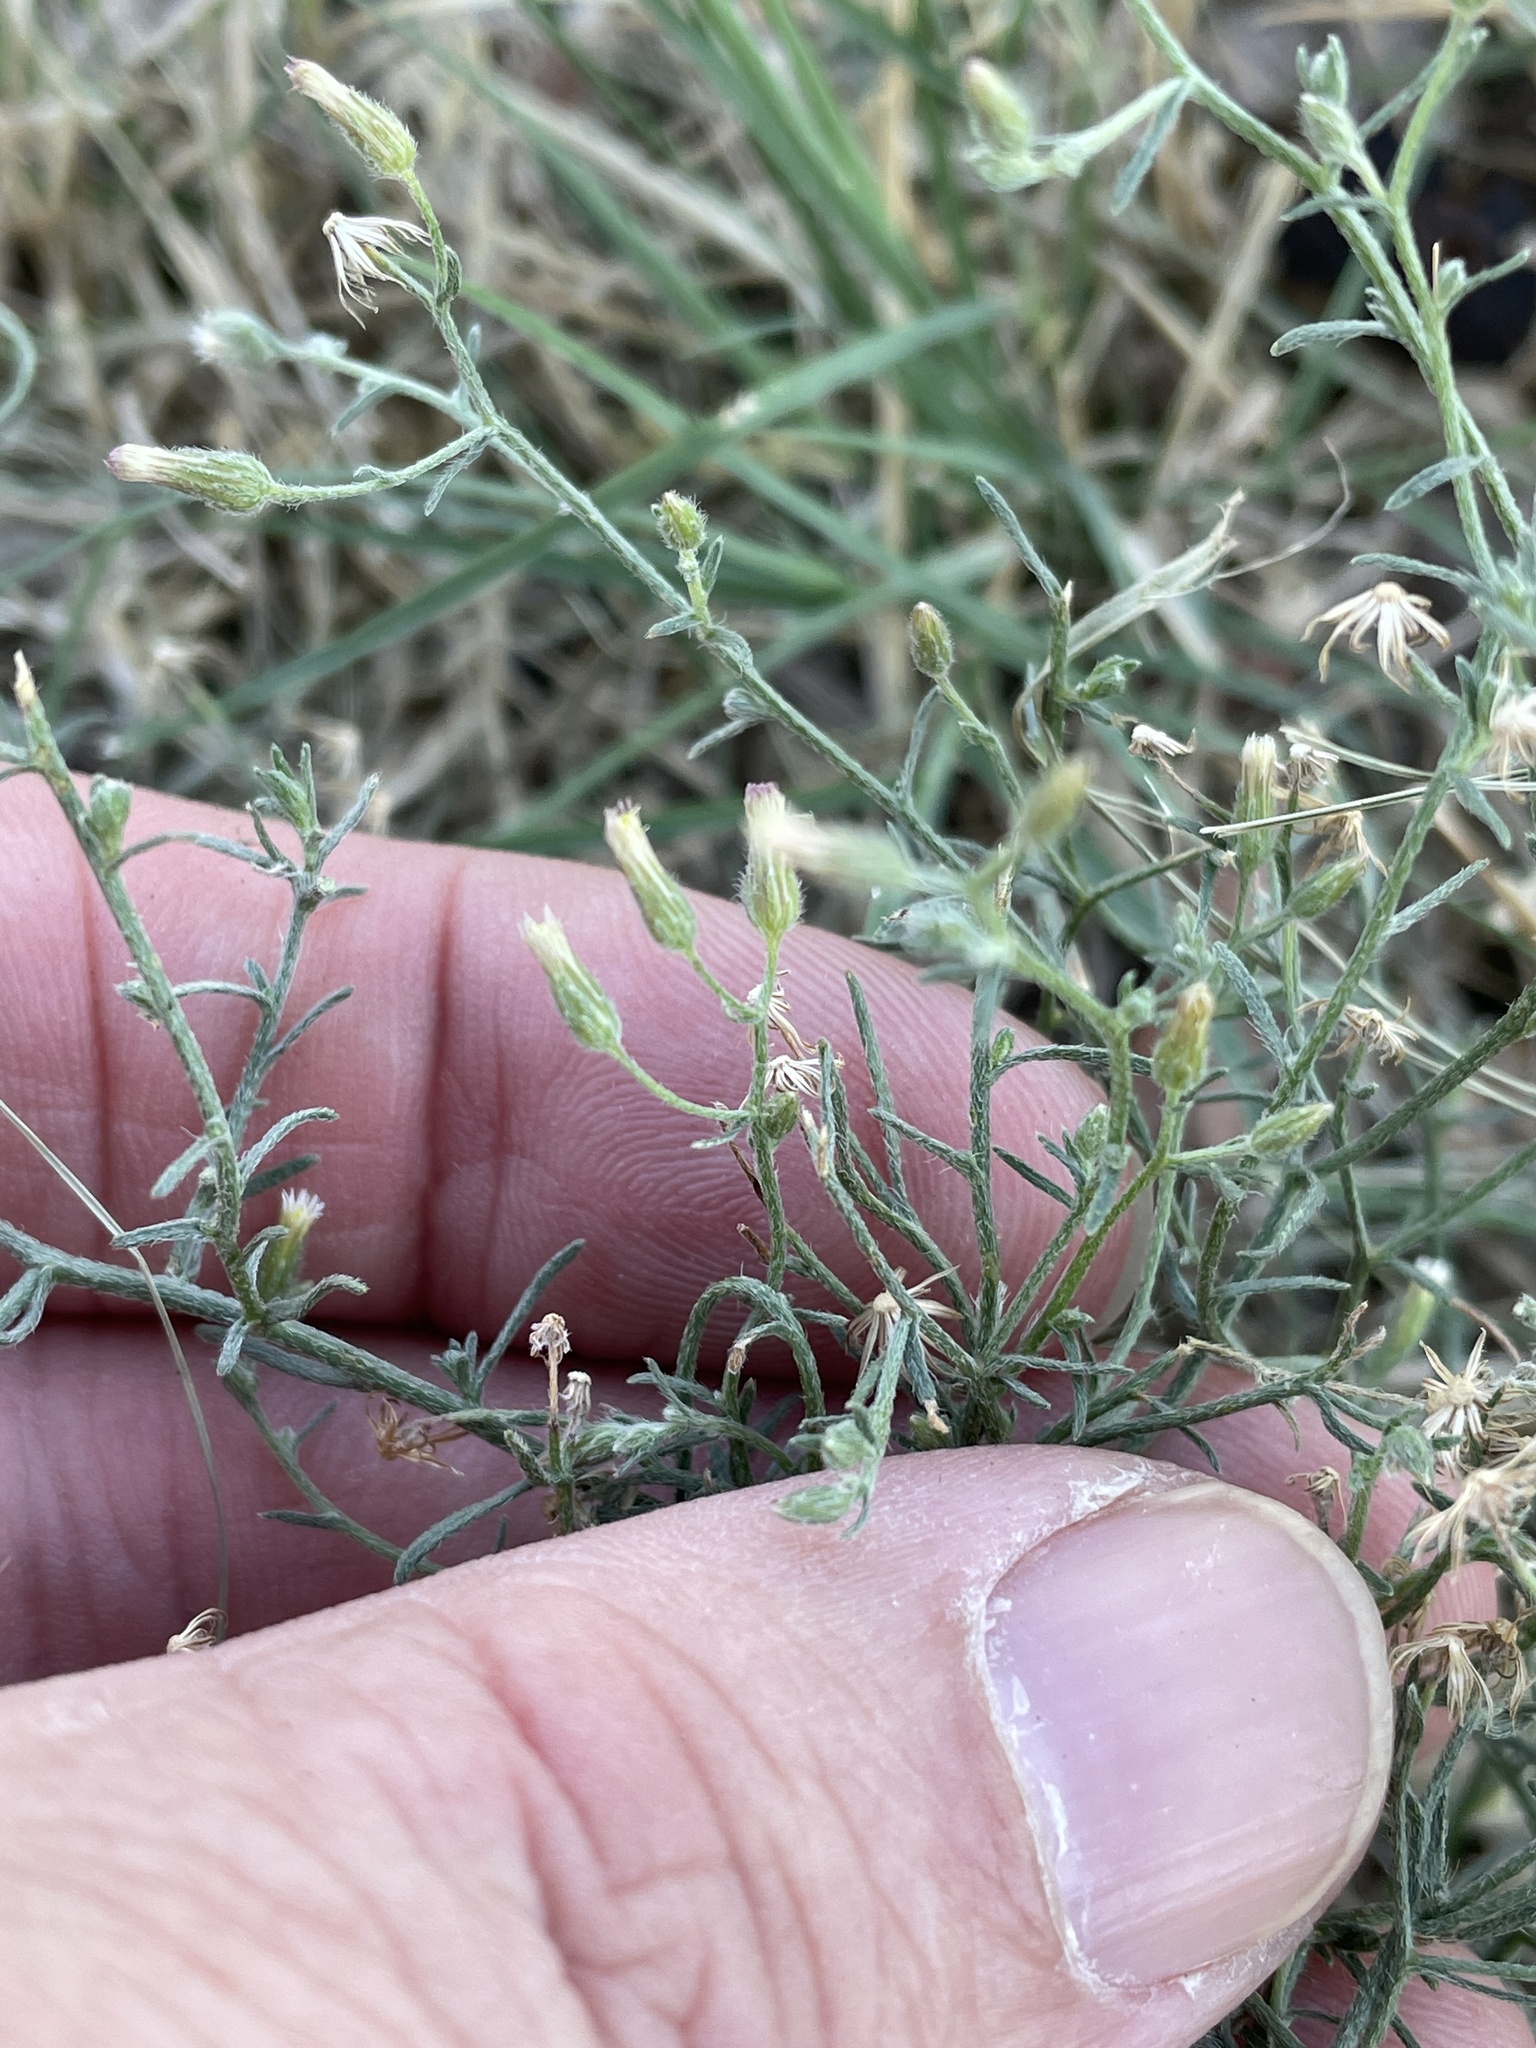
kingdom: Plantae
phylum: Tracheophyta
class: Magnoliopsida
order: Asterales
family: Asteraceae
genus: Erigeron
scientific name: Erigeron divaricatus
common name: Dwarf conyza
